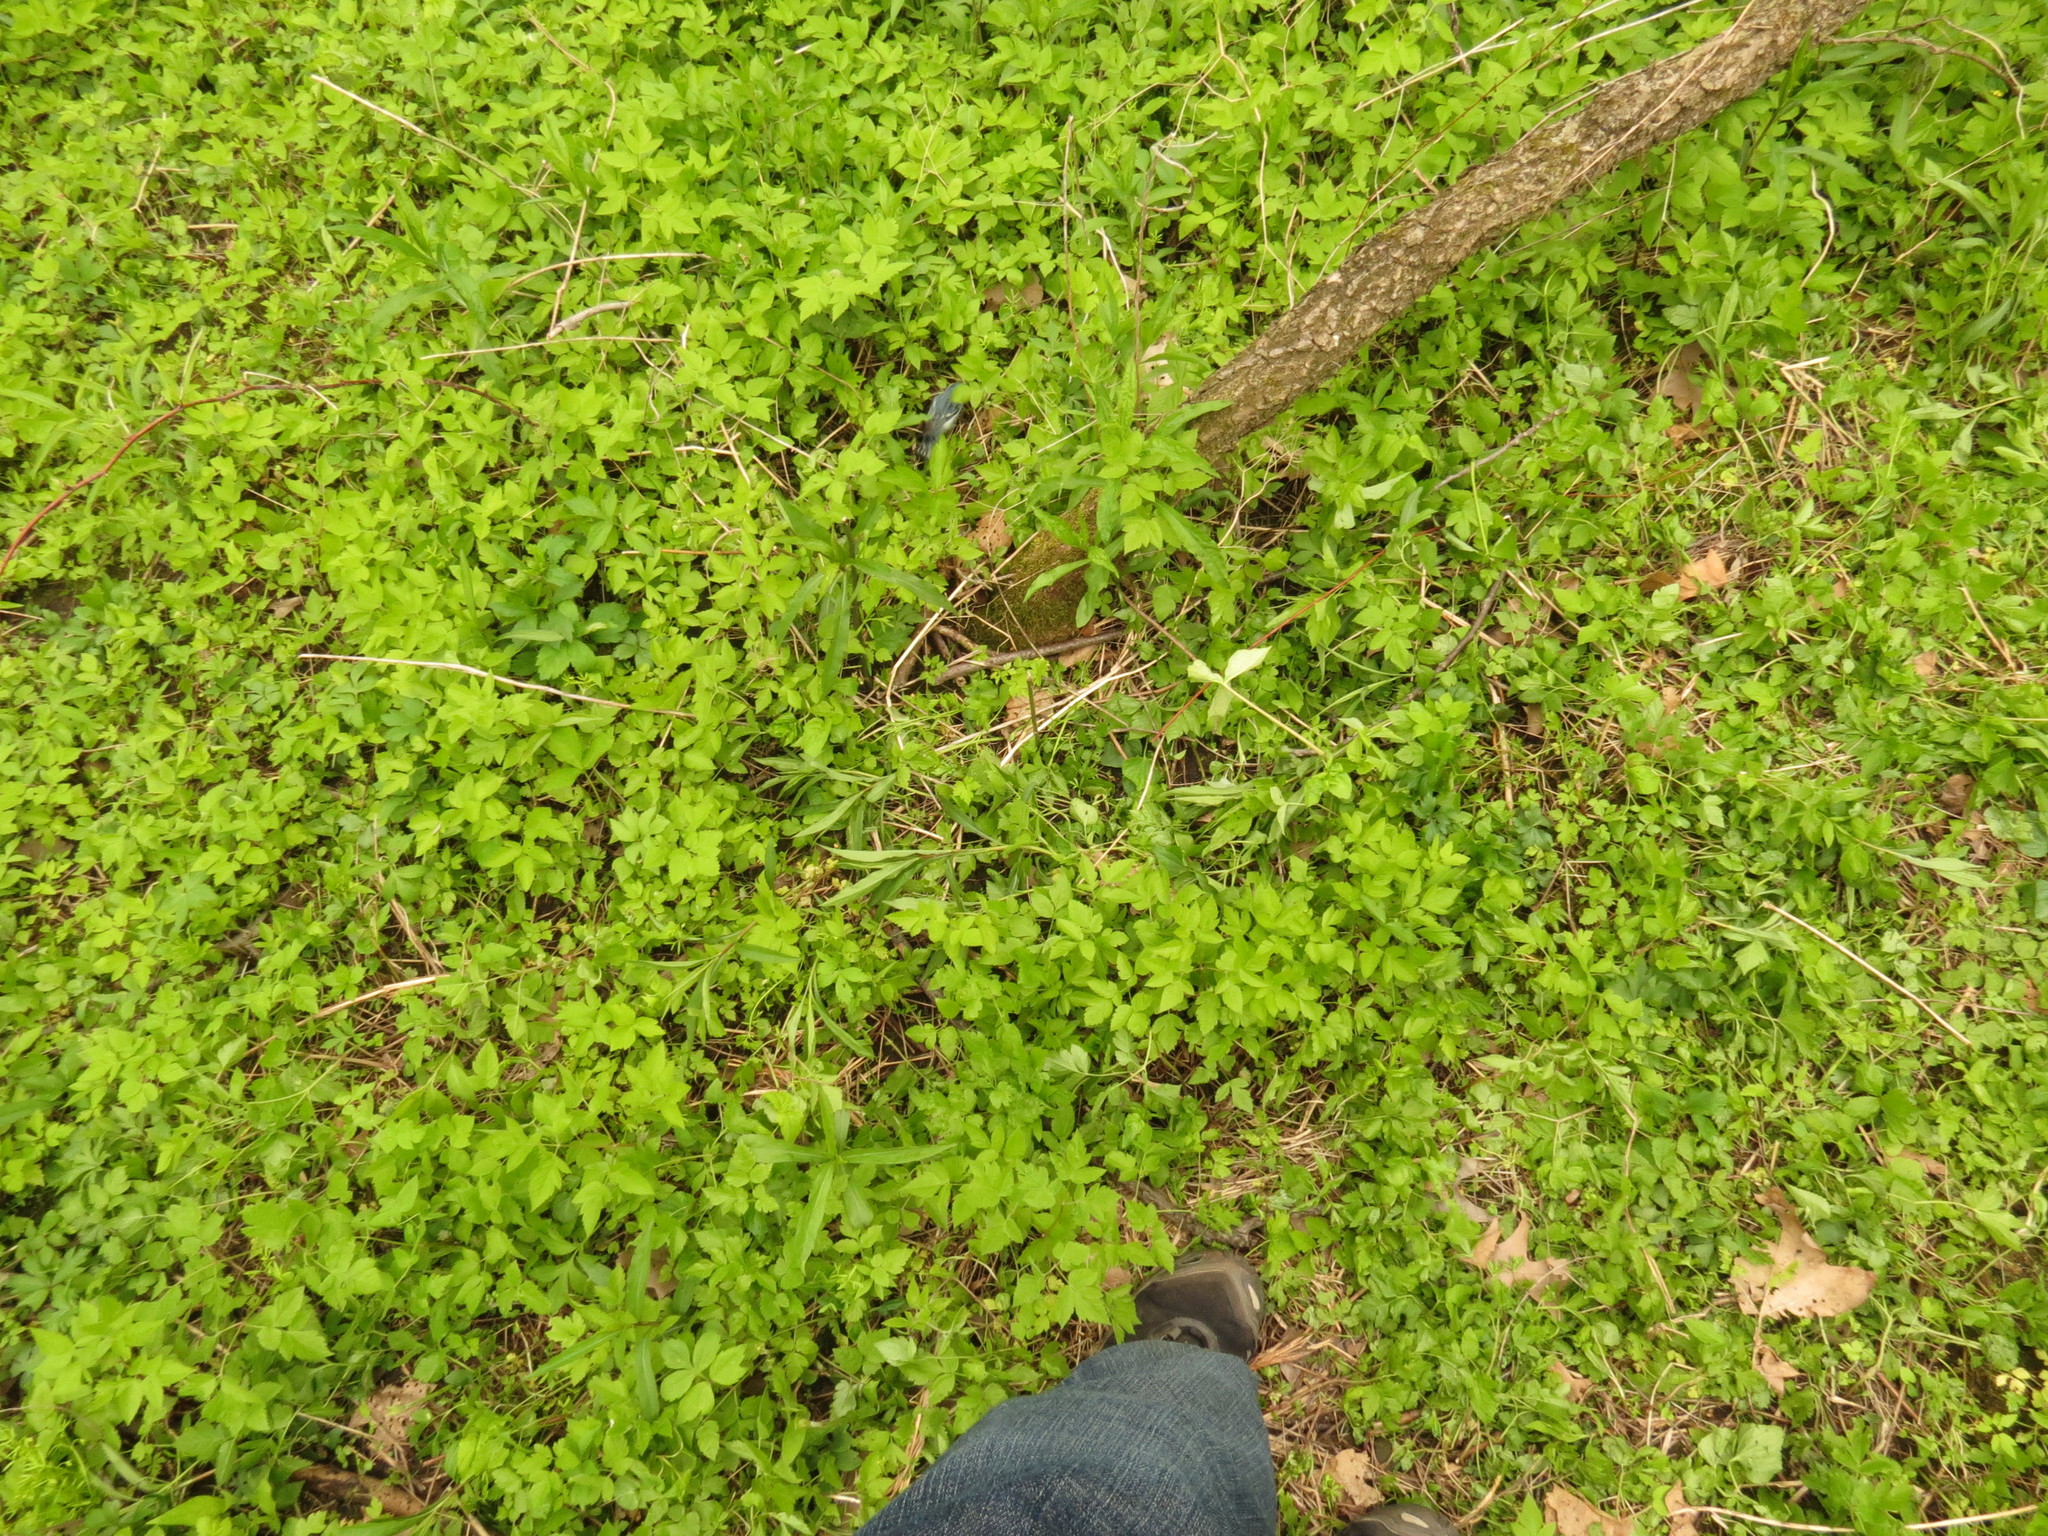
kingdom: Animalia
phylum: Chordata
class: Aves
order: Passeriformes
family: Parulidae
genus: Setophaga
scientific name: Setophaga cerulea
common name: Cerulean warbler
